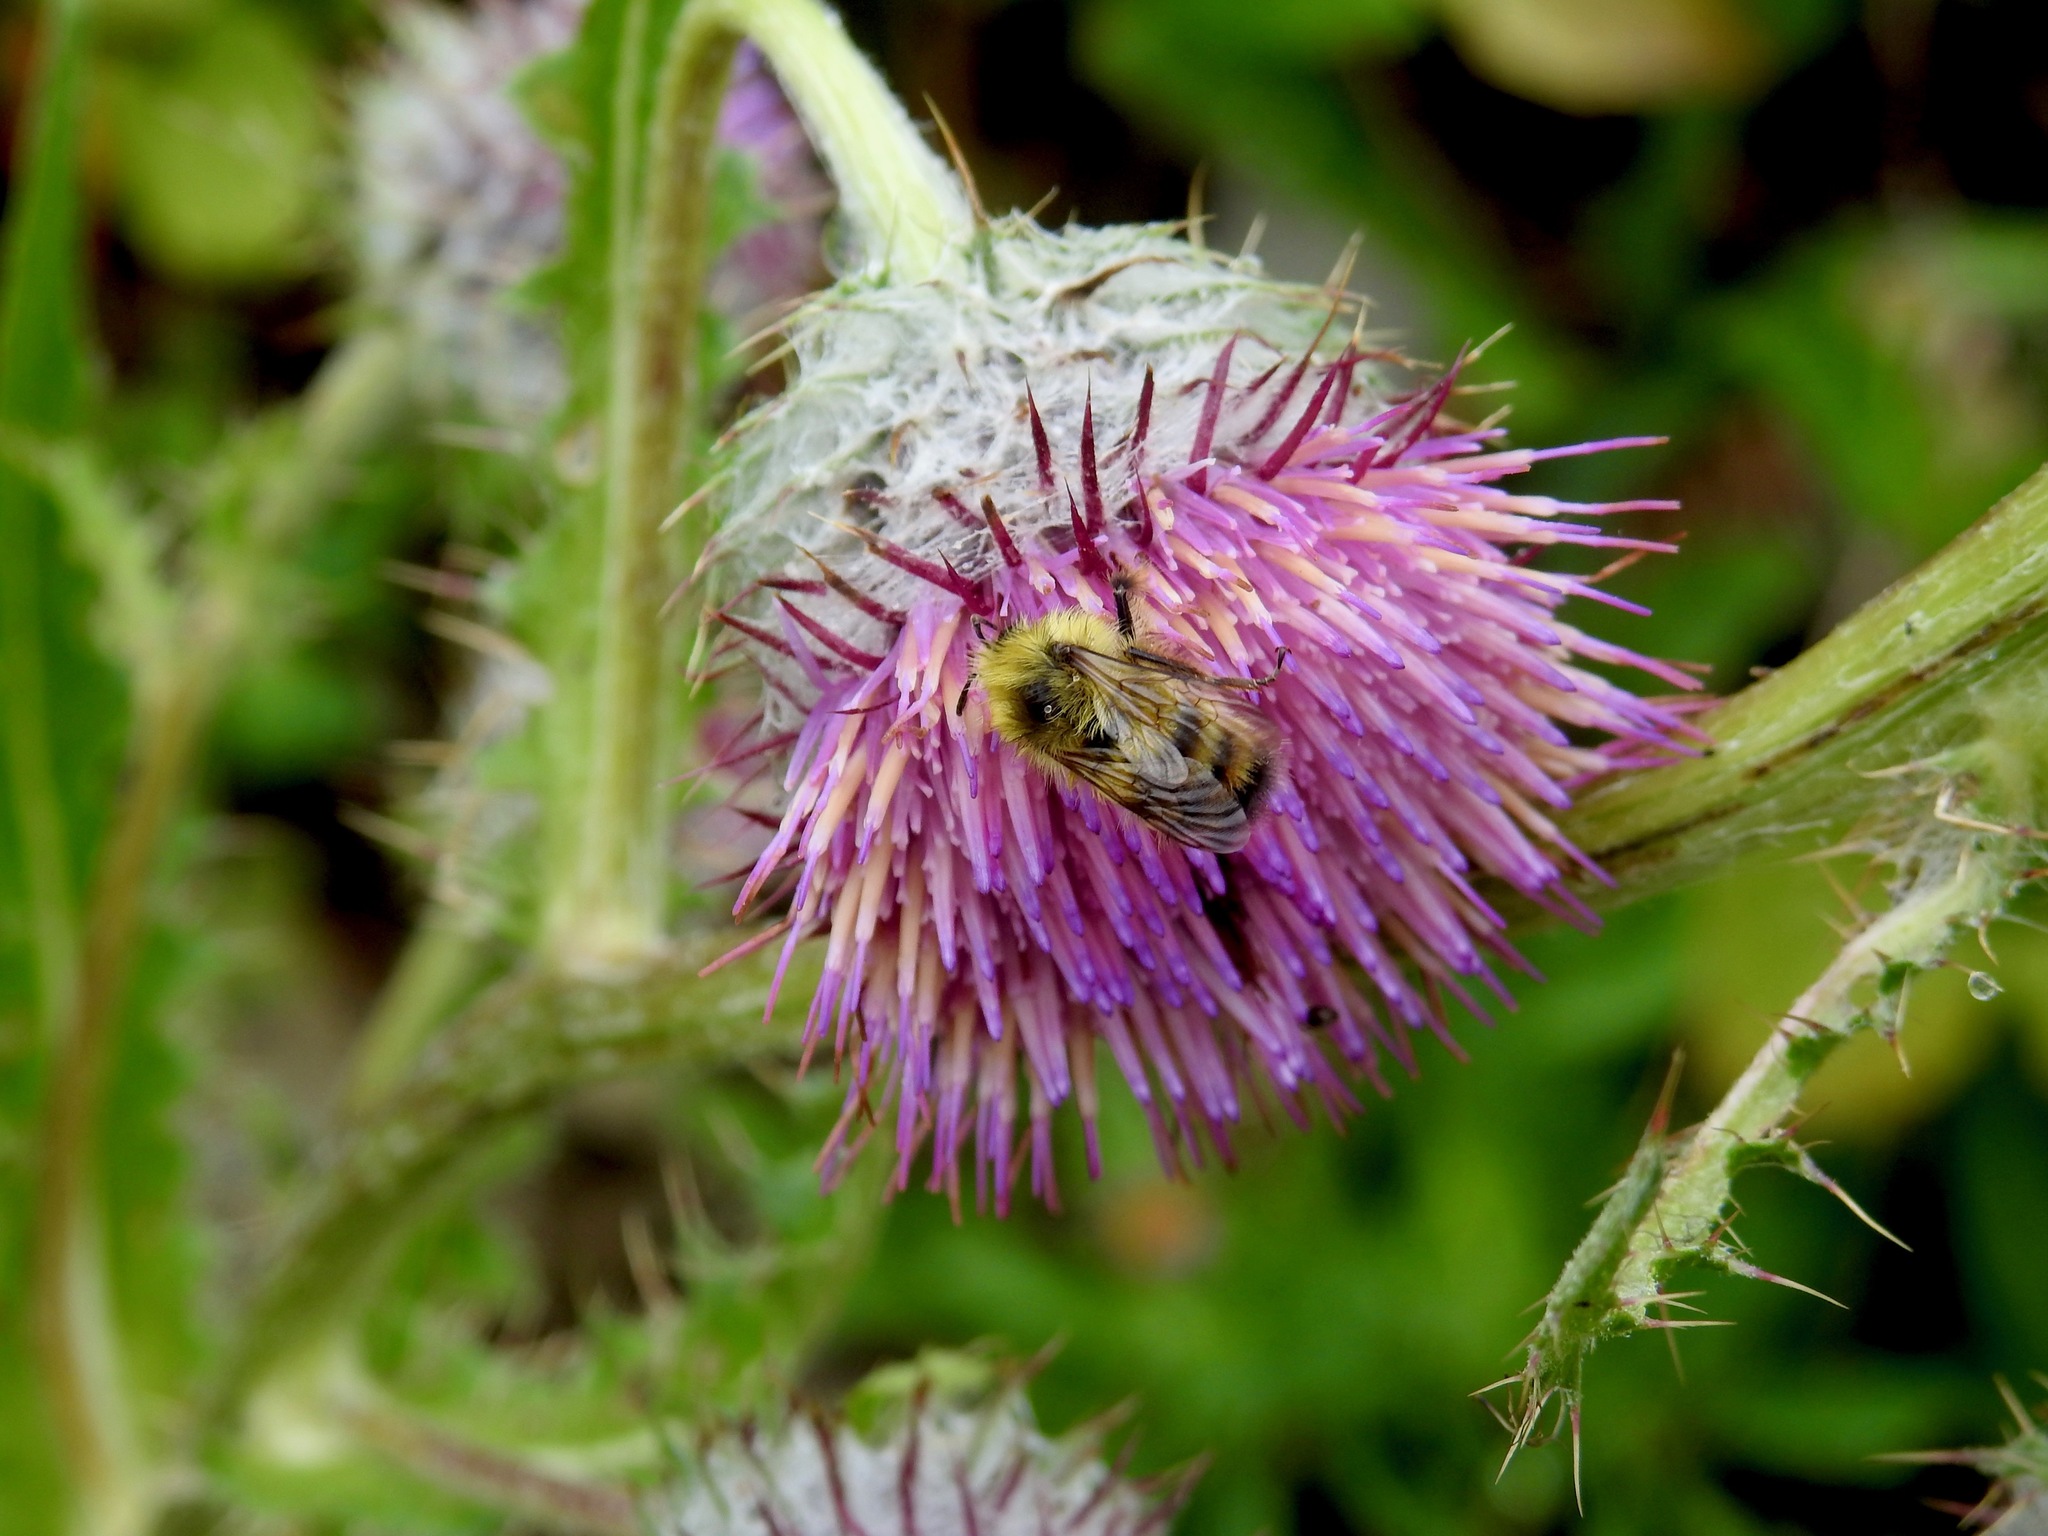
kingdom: Animalia
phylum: Arthropoda
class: Insecta
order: Hymenoptera
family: Apidae
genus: Bombus
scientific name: Bombus flavifrons
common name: Yellow head bumble bee
